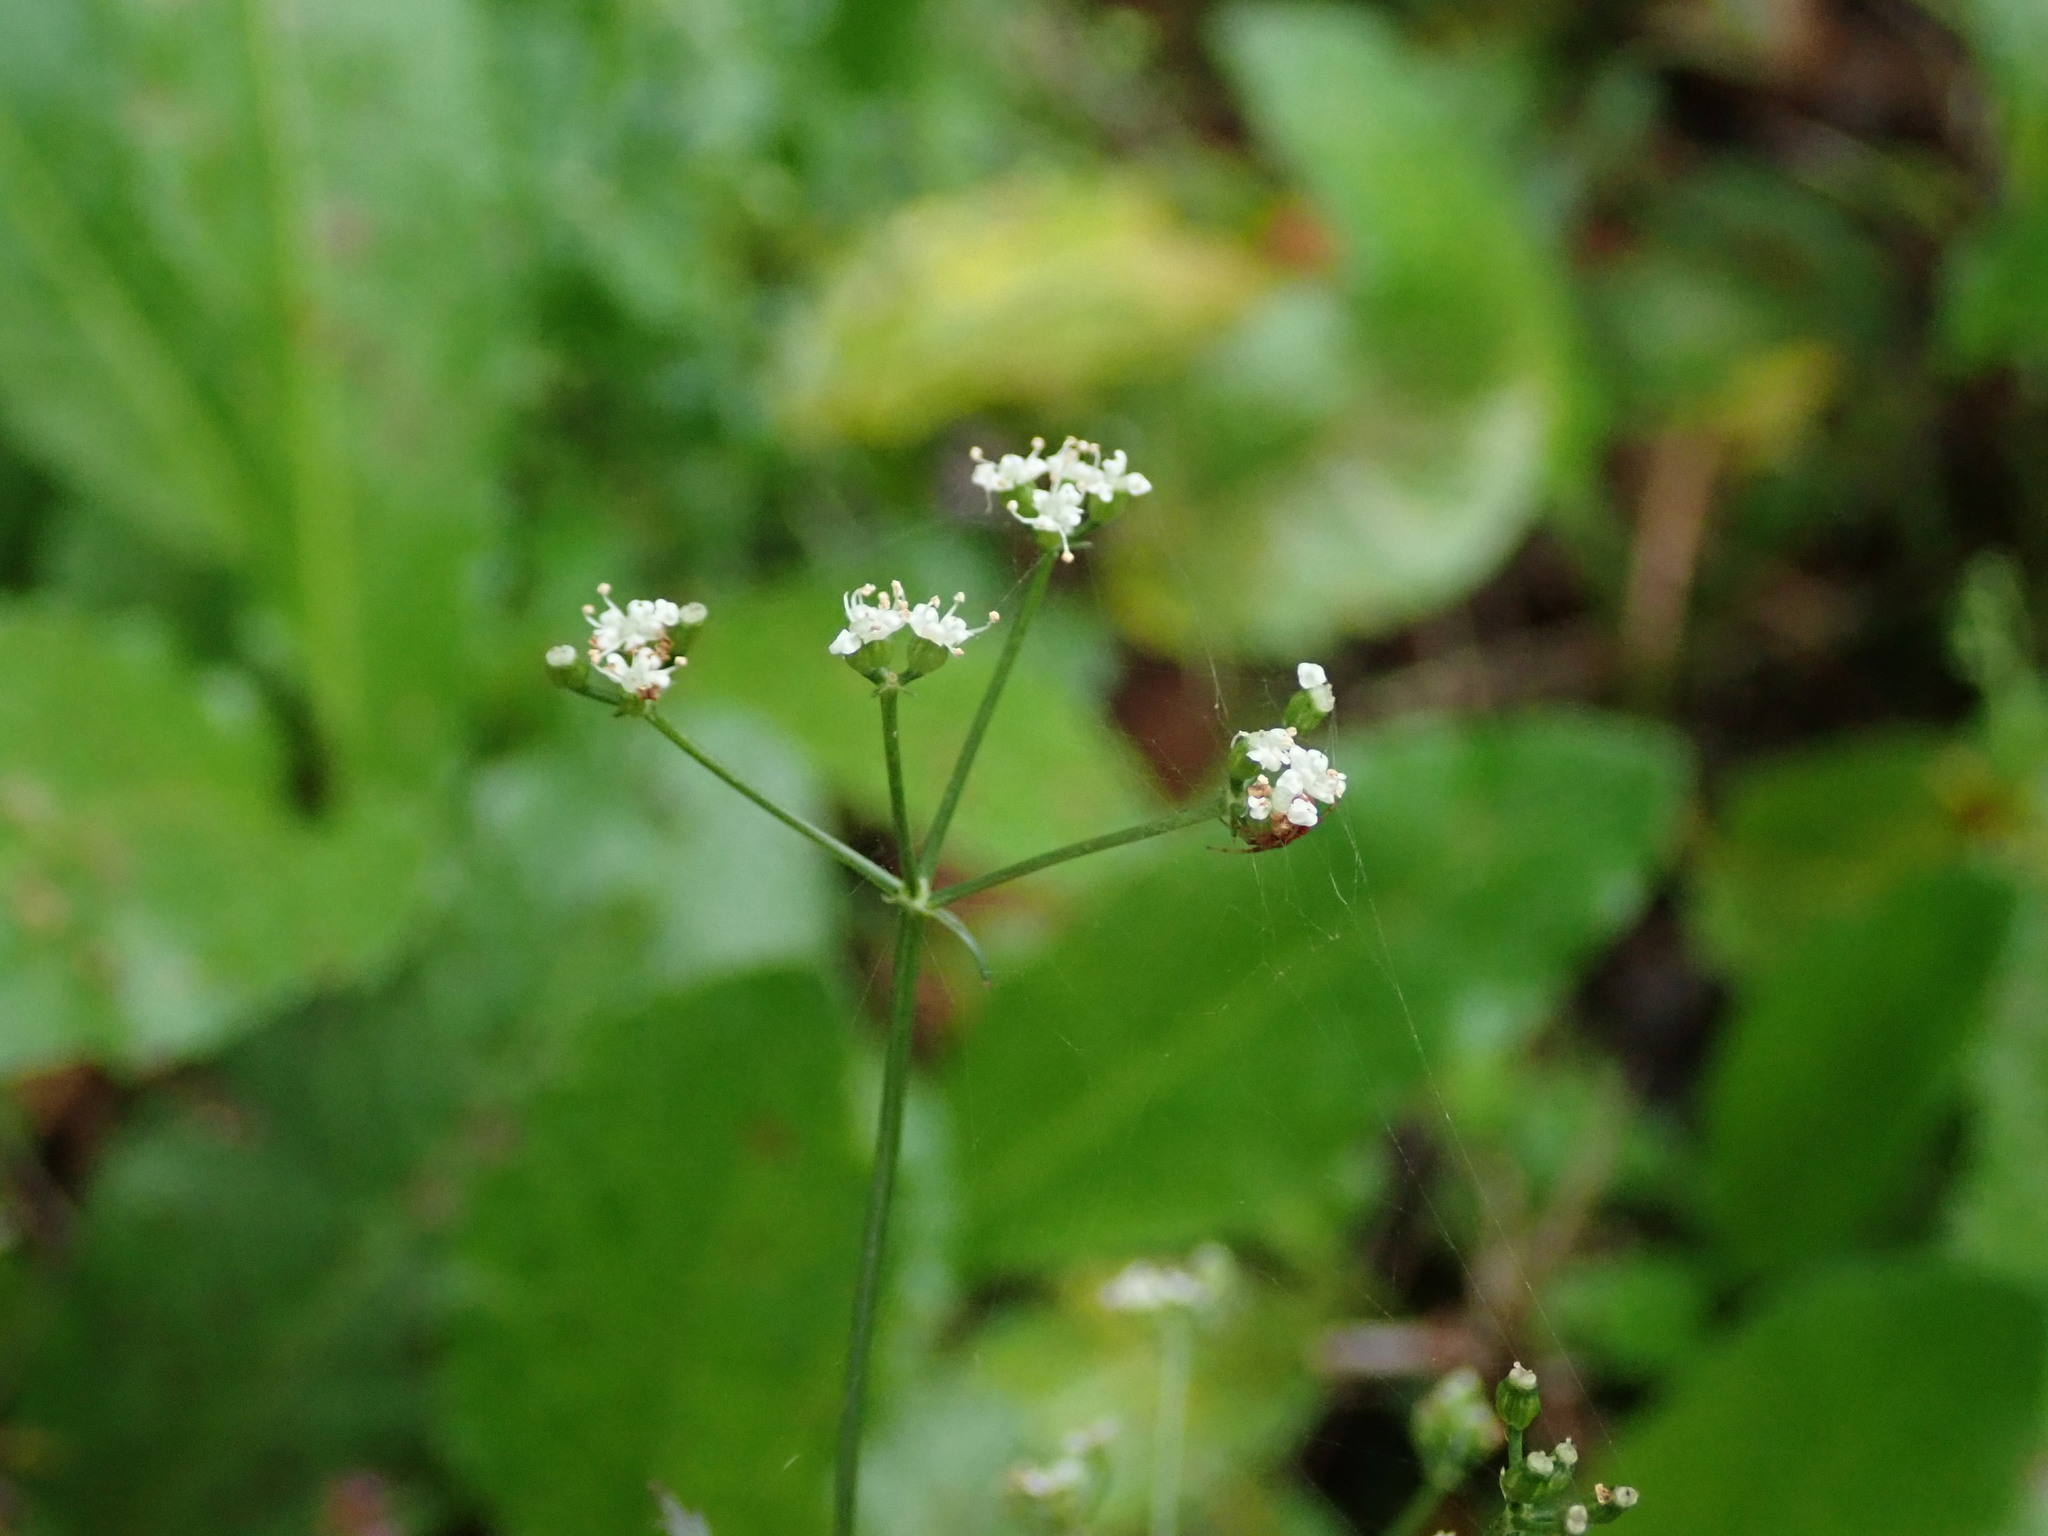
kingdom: Plantae
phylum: Tracheophyta
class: Magnoliopsida
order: Apiales
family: Apiaceae
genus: Sison
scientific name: Sison amomum
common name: Stone-parsley
